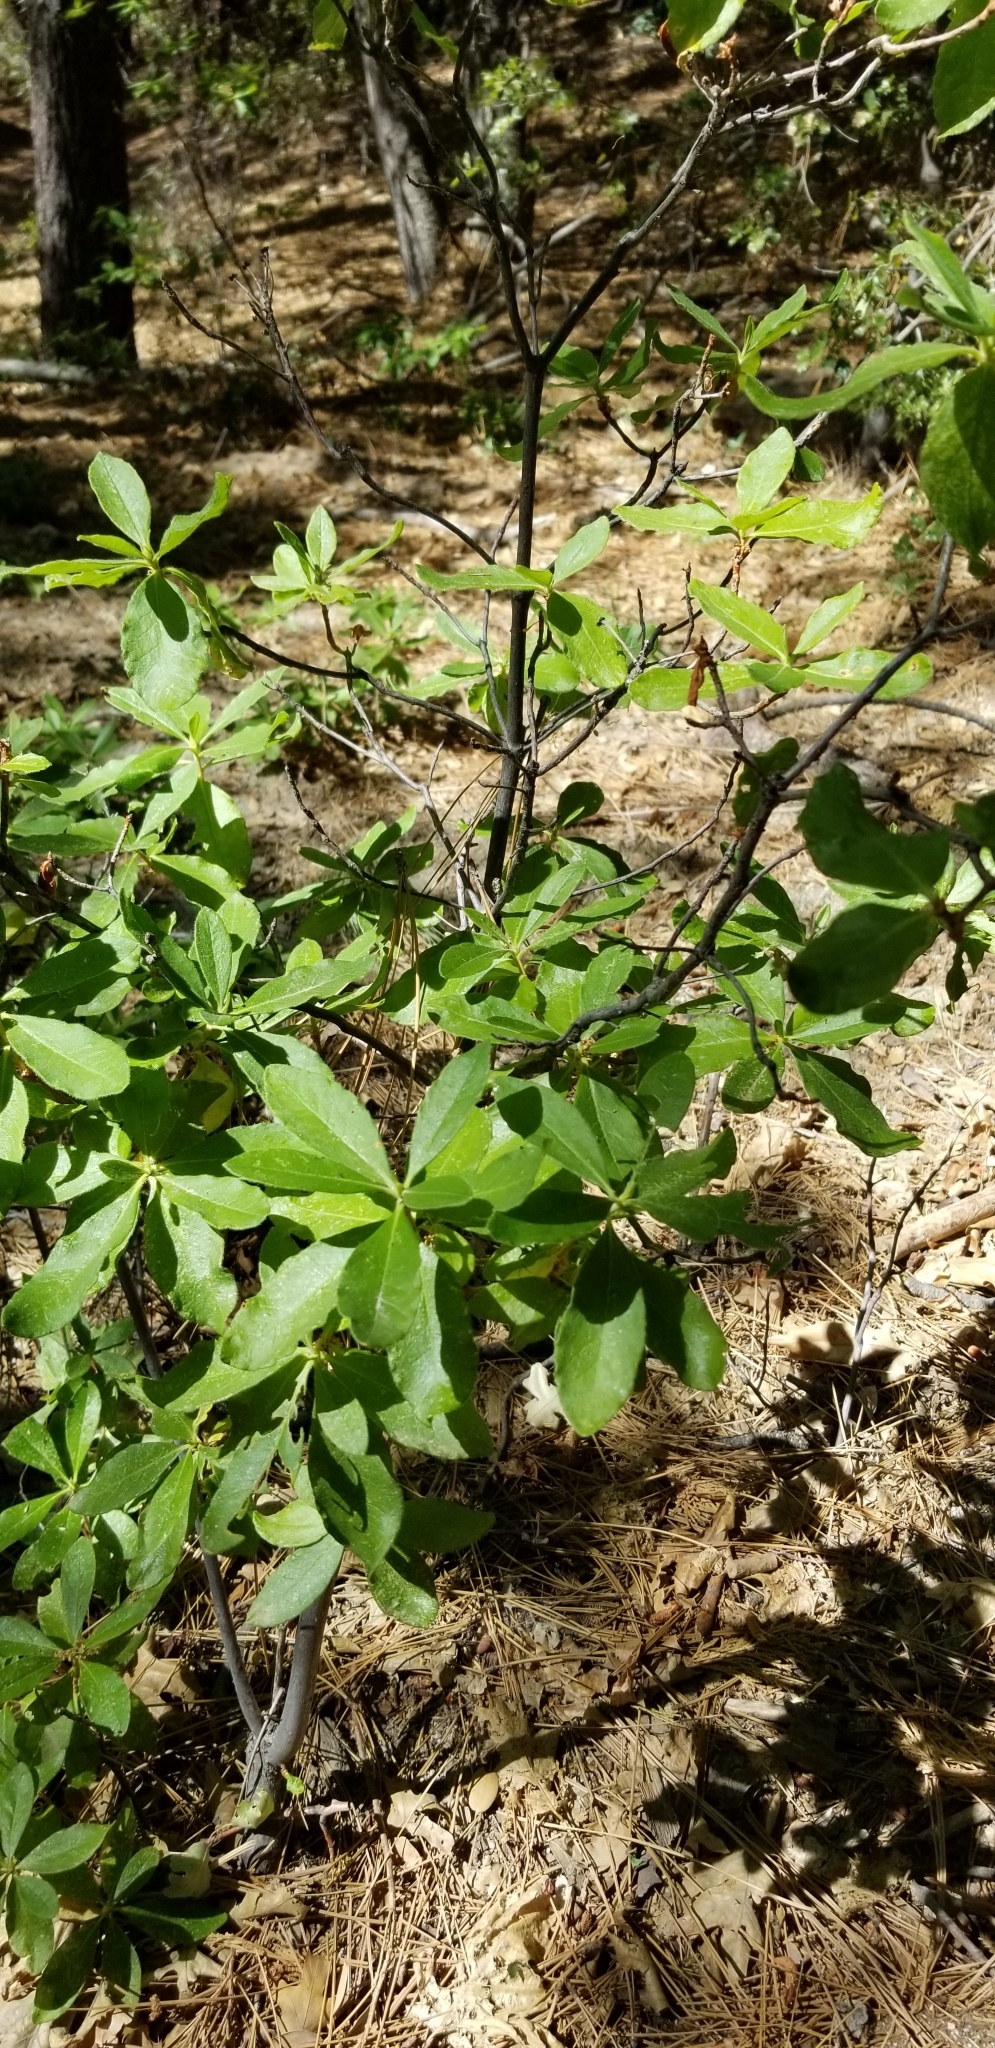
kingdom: Plantae
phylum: Tracheophyta
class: Magnoliopsida
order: Ericales
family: Ericaceae
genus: Rhododendron
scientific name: Rhododendron occidentale
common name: Western azalea
